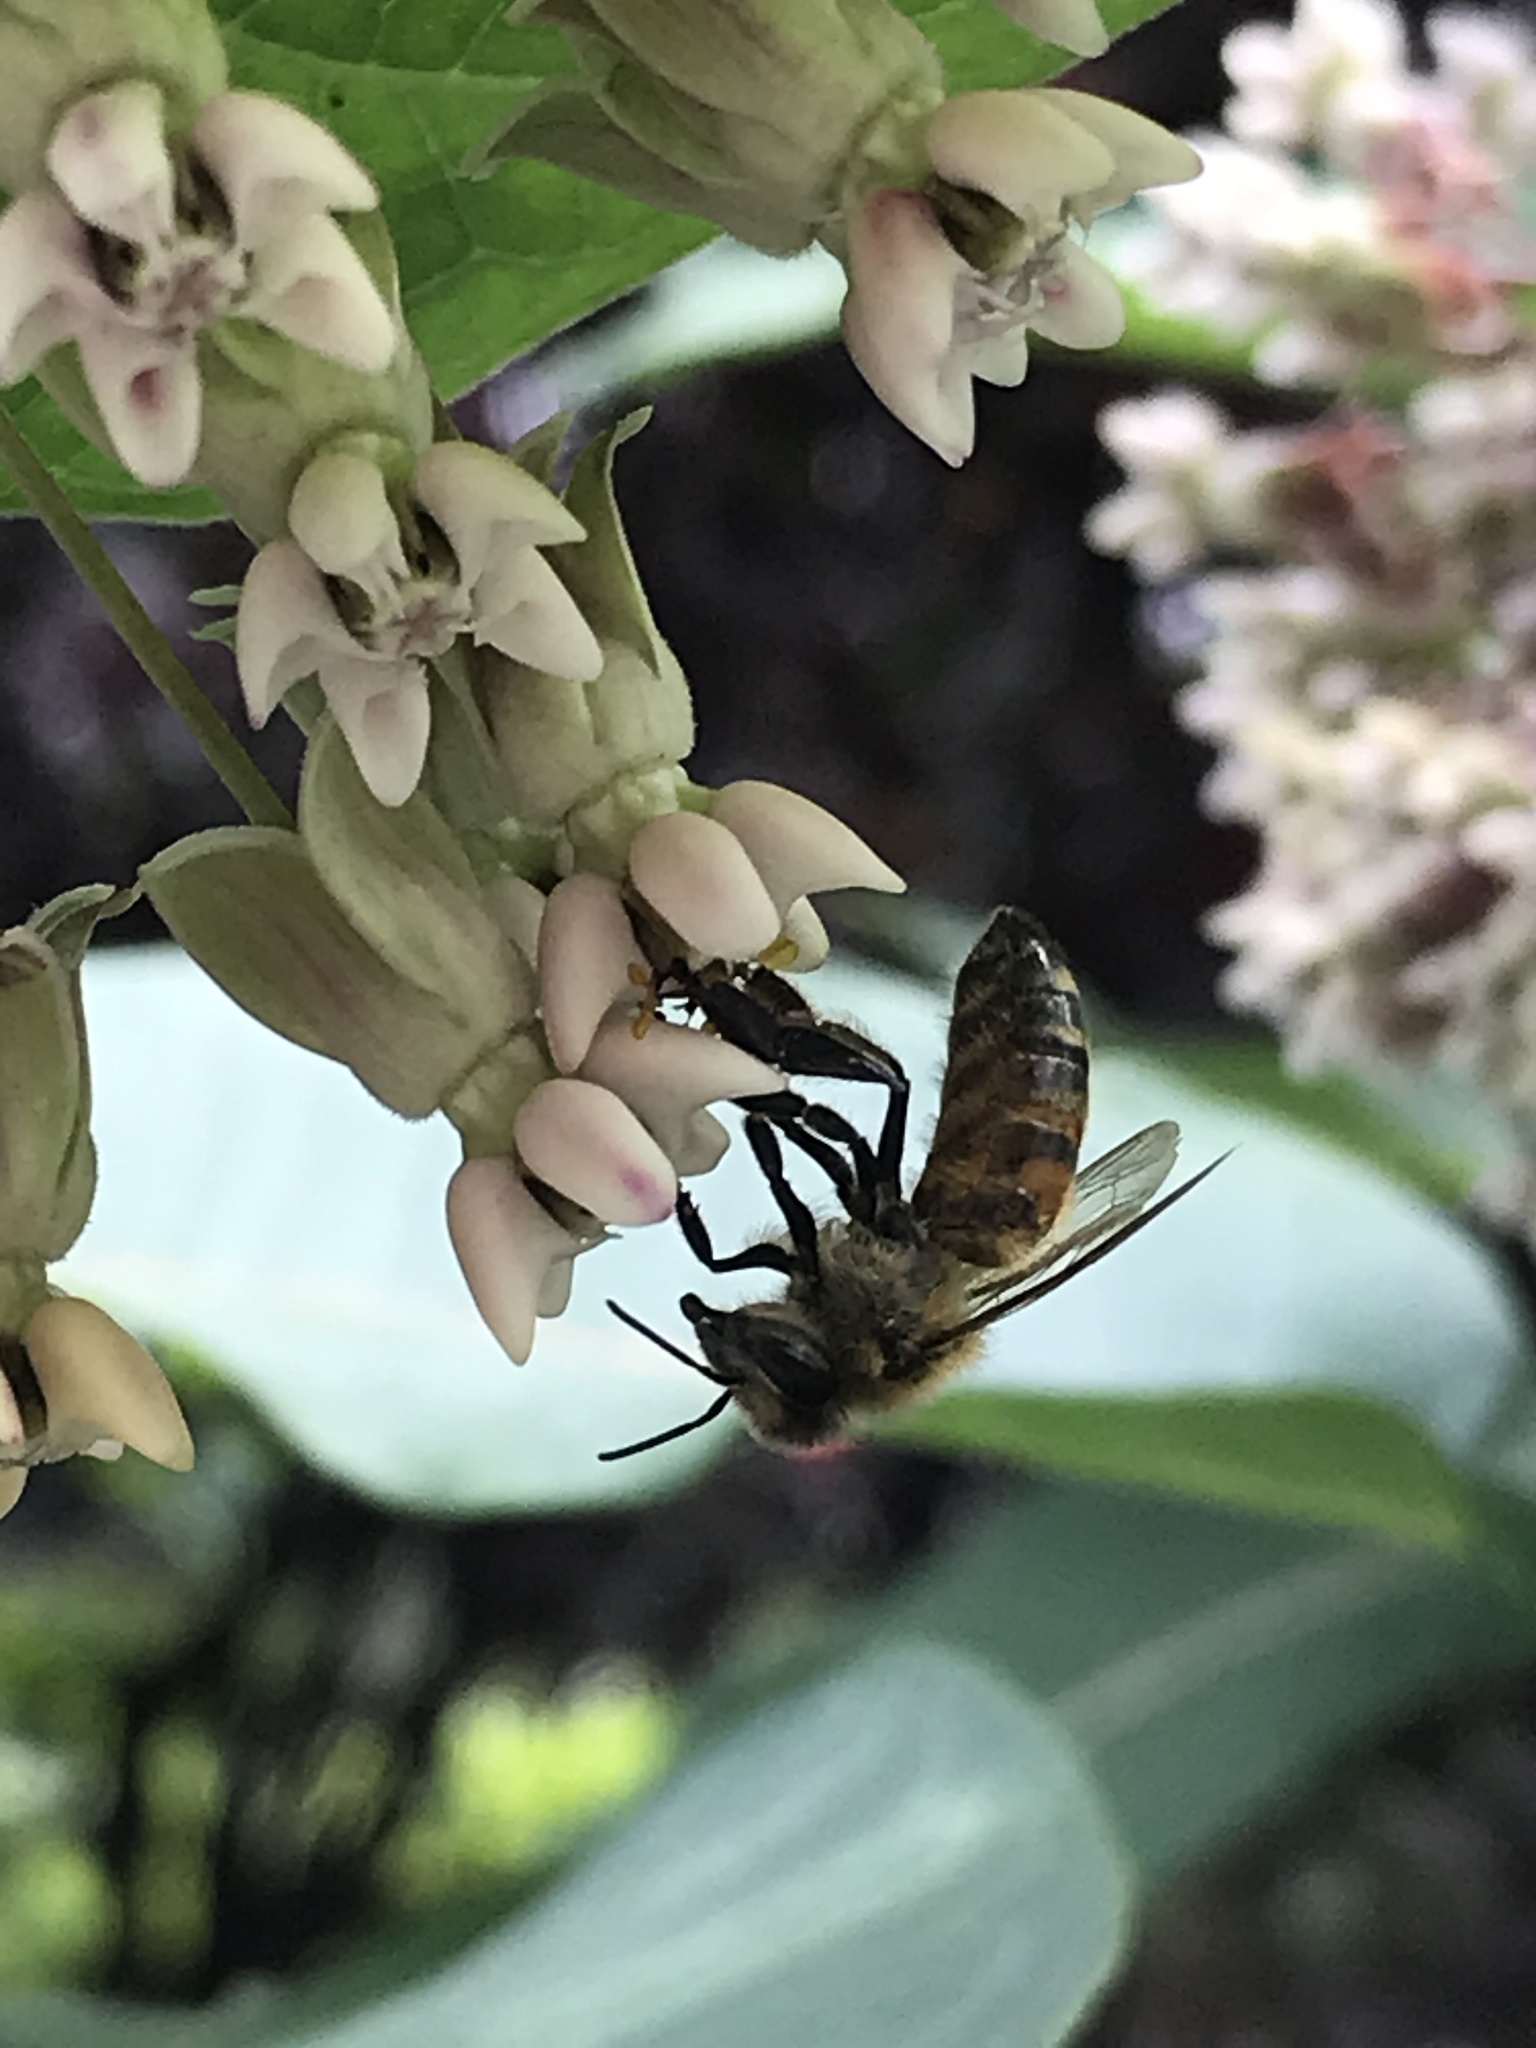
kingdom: Animalia
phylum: Arthropoda
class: Insecta
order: Hymenoptera
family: Apidae
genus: Apis
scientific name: Apis mellifera
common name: Honey bee
